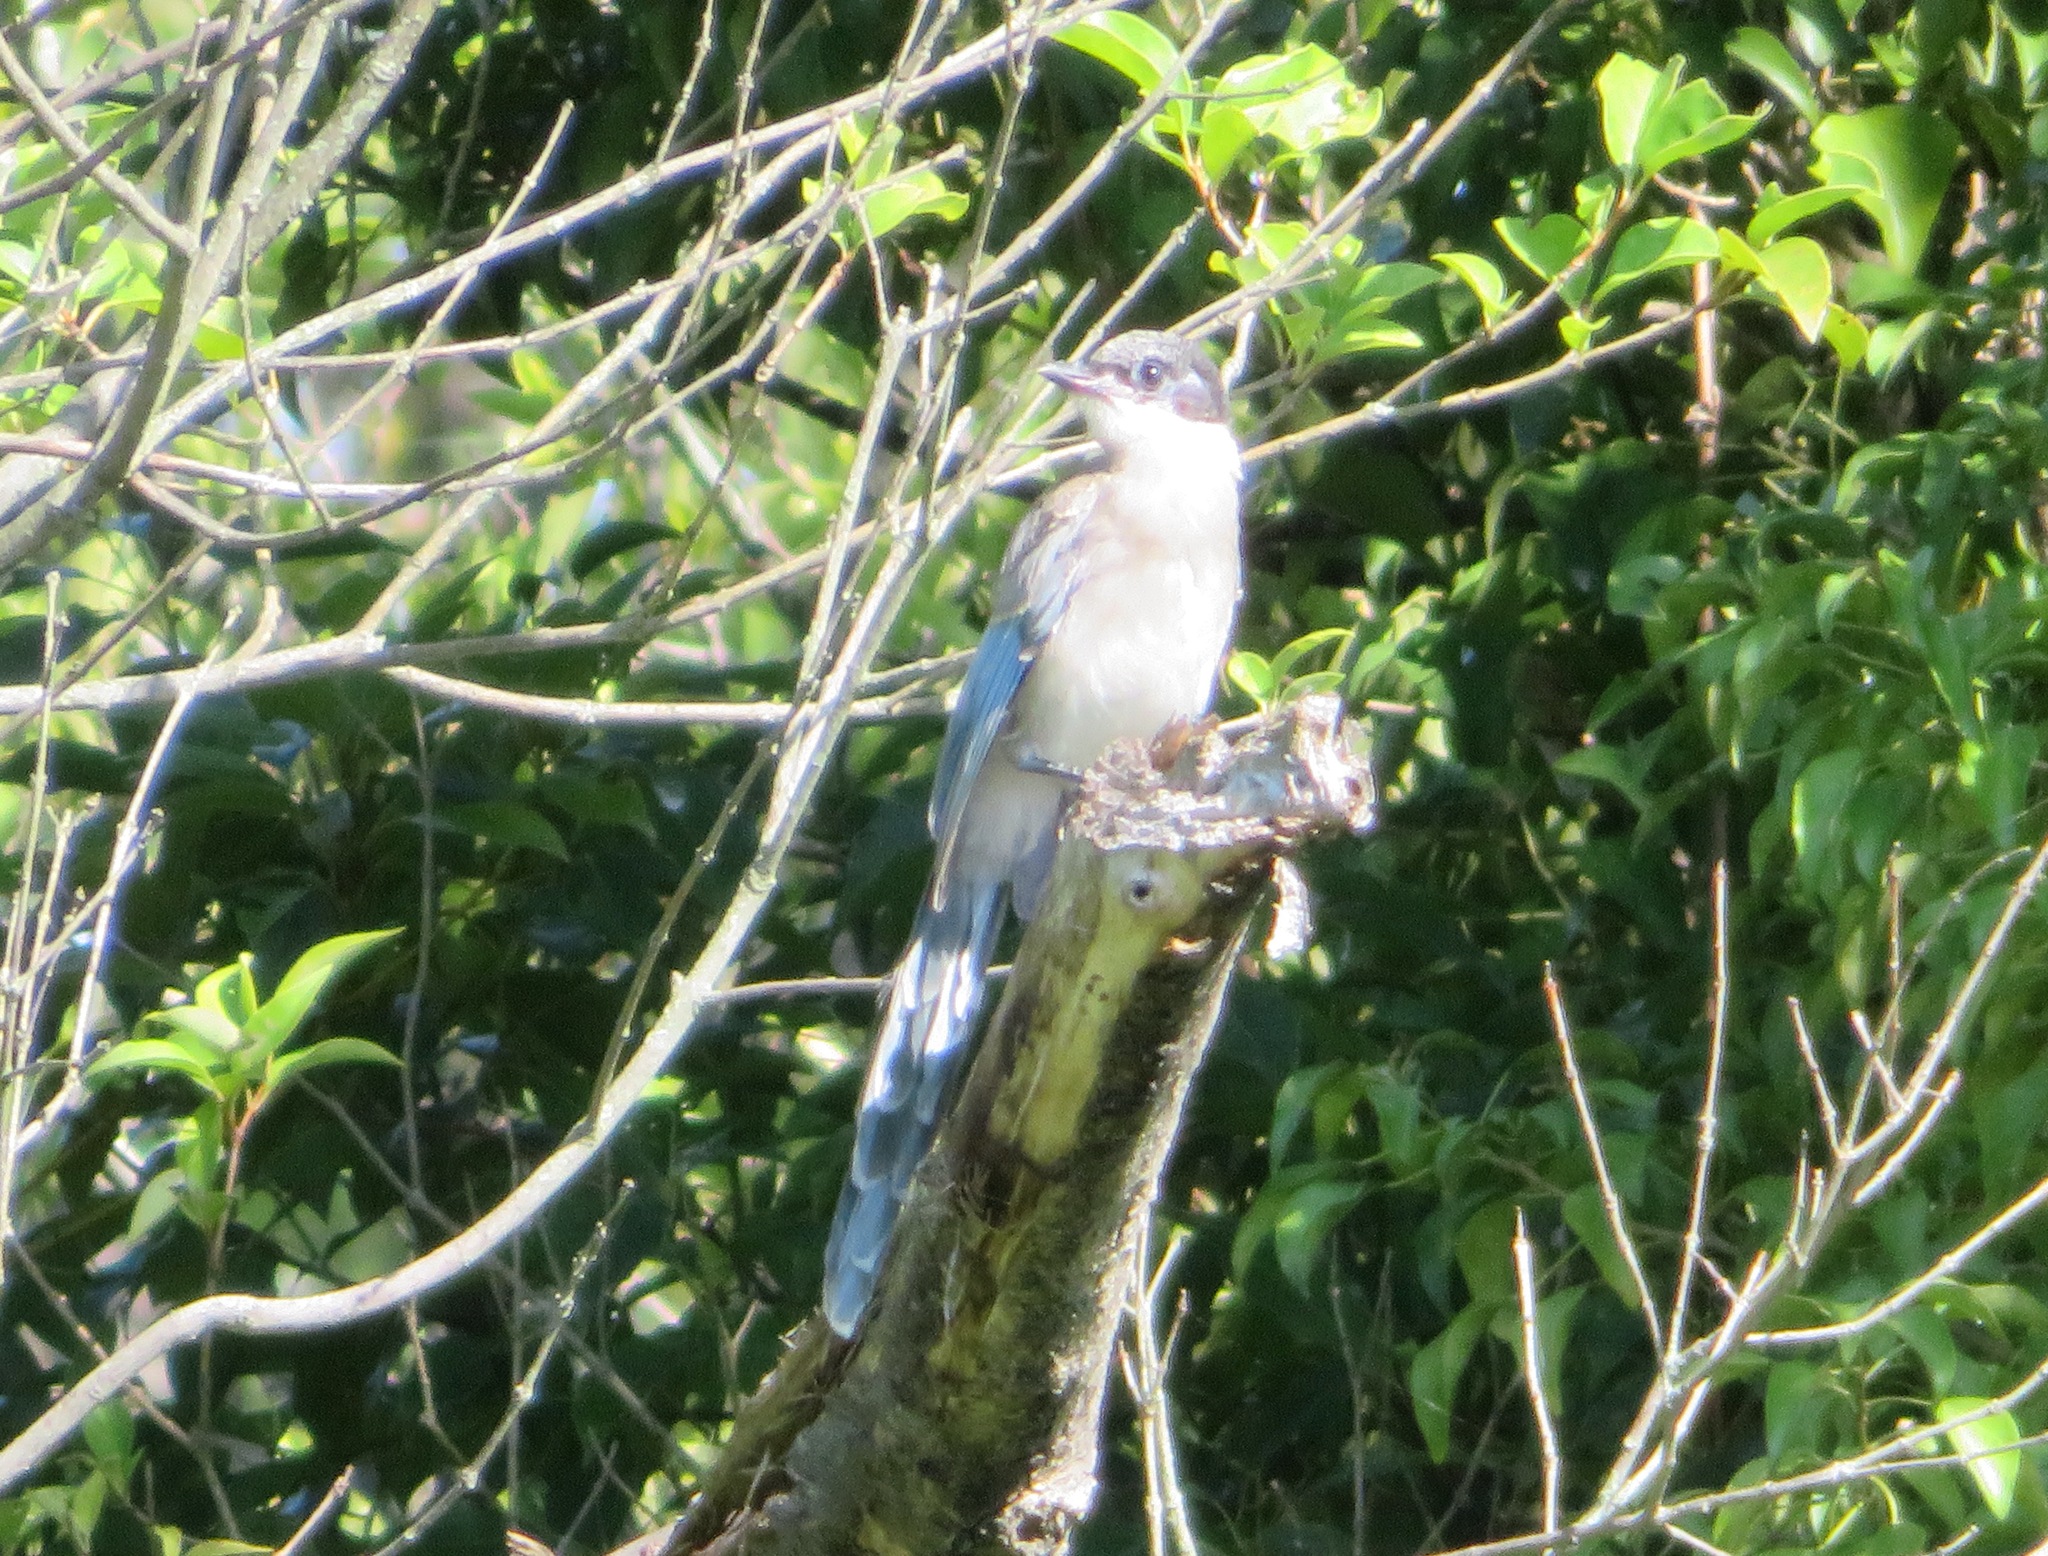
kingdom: Animalia
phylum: Chordata
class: Aves
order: Passeriformes
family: Corvidae
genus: Cyanopica
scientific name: Cyanopica cyanus
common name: Azure-winged magpie
